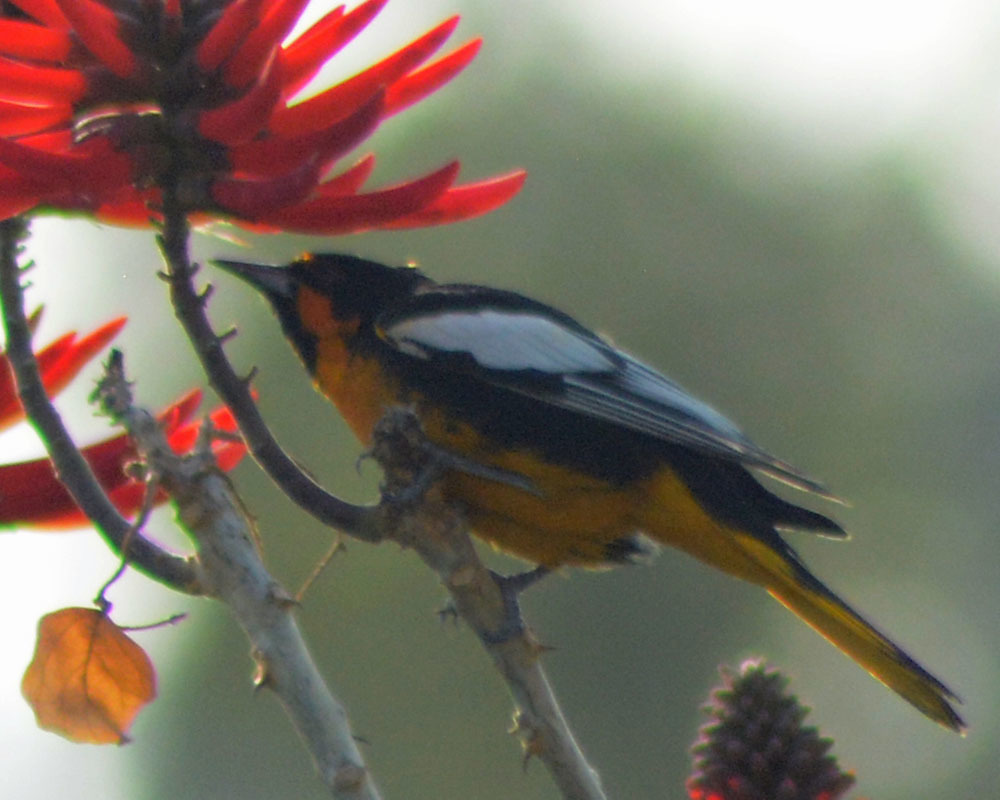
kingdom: Animalia
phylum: Chordata
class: Aves
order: Passeriformes
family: Icteridae
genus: Icterus
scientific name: Icterus abeillei
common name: Black-backed oriole
